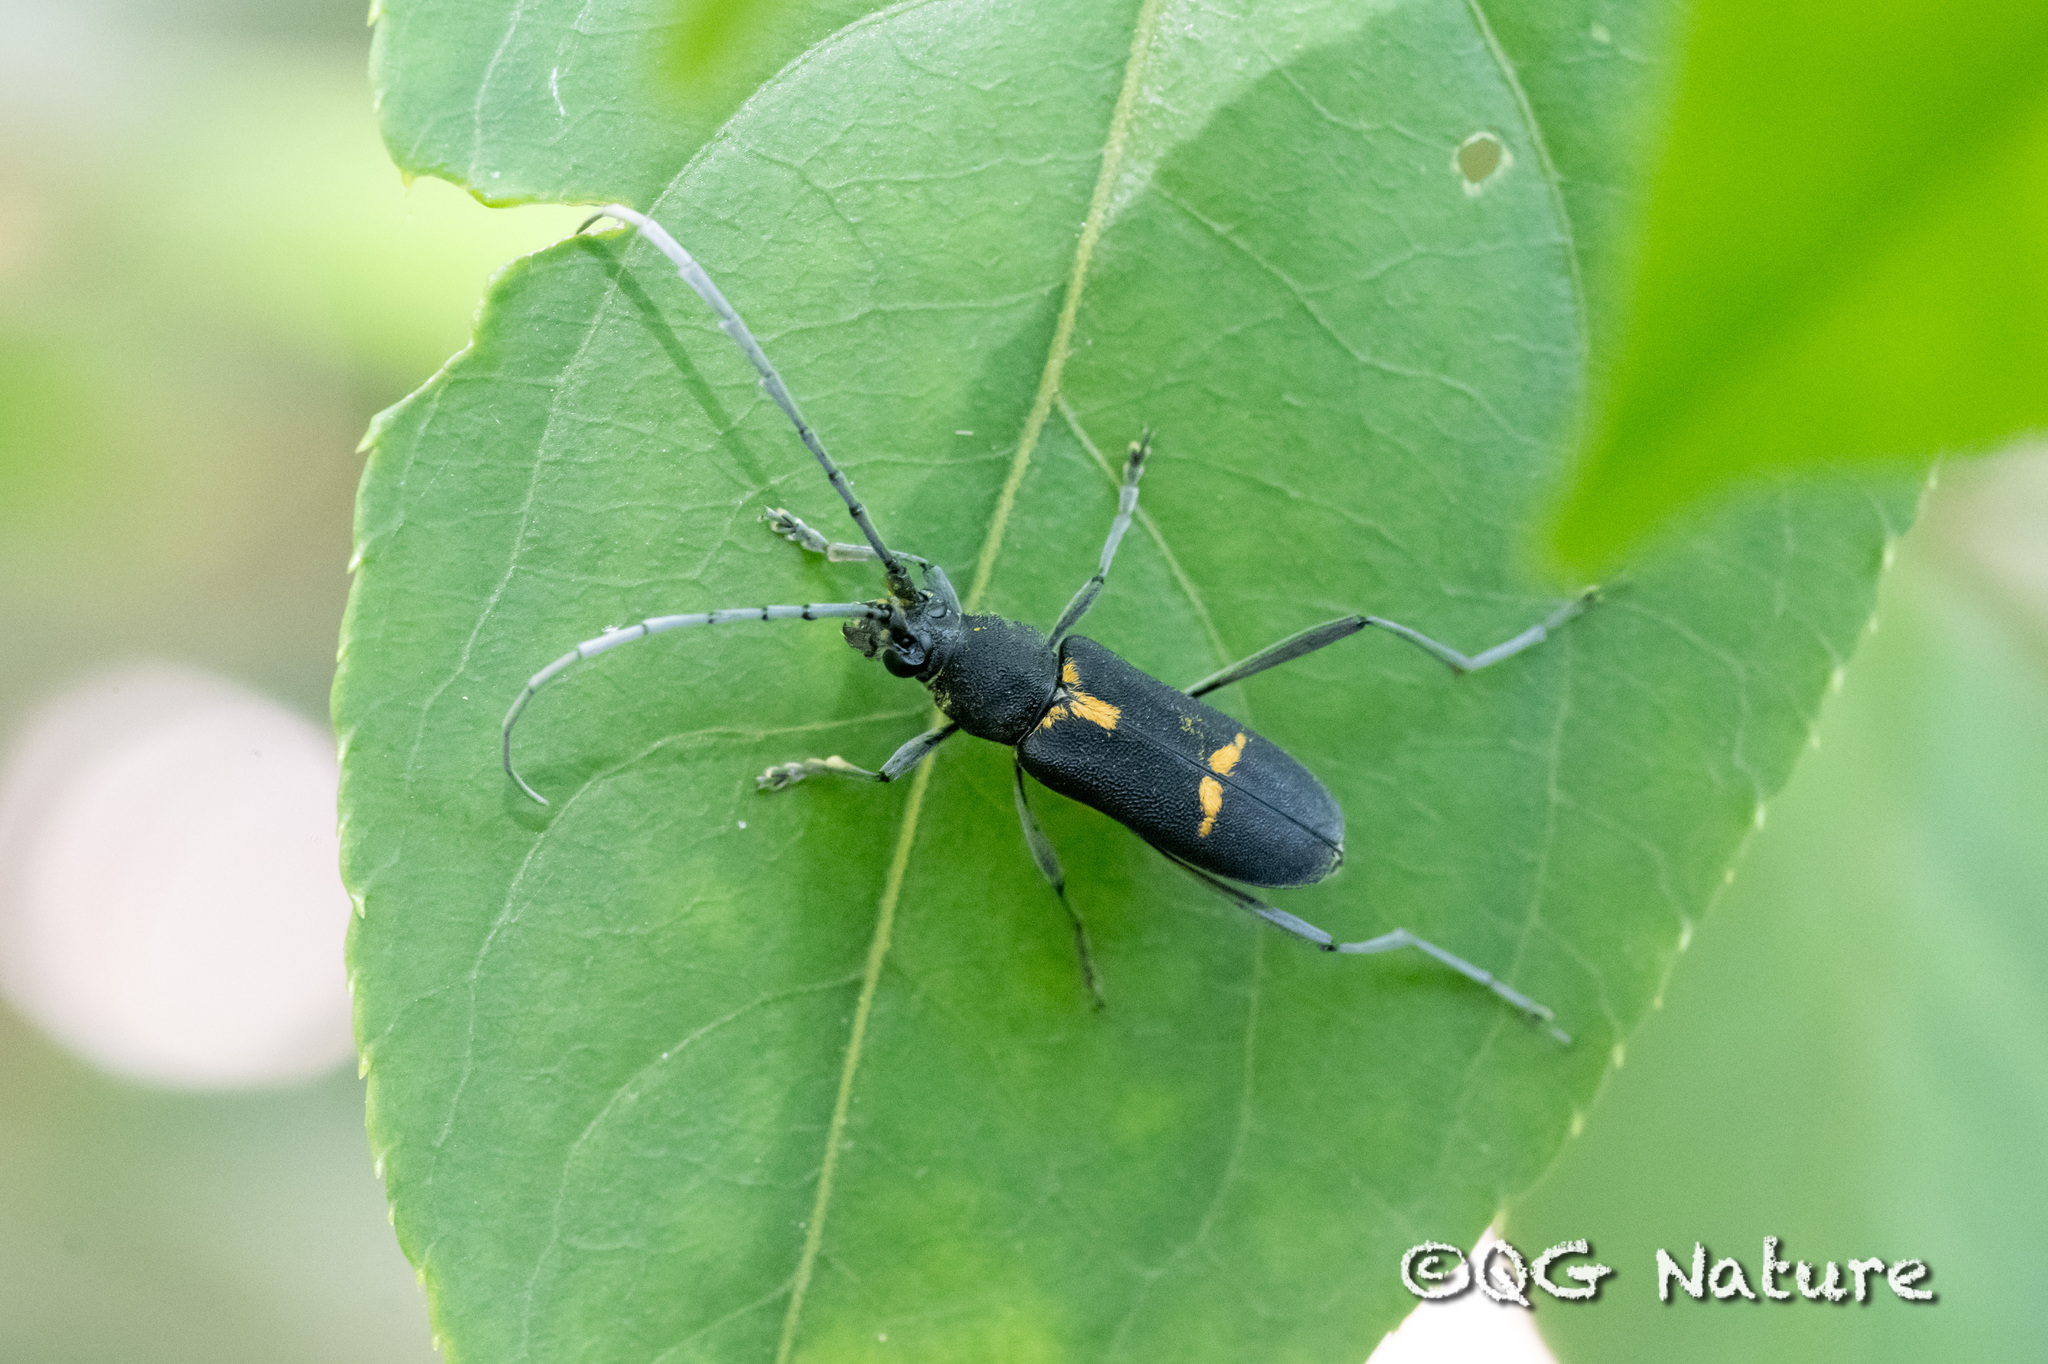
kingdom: Animalia
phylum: Arthropoda
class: Insecta
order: Coleoptera
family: Cerambycidae
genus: Prothema
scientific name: Prothema signata
